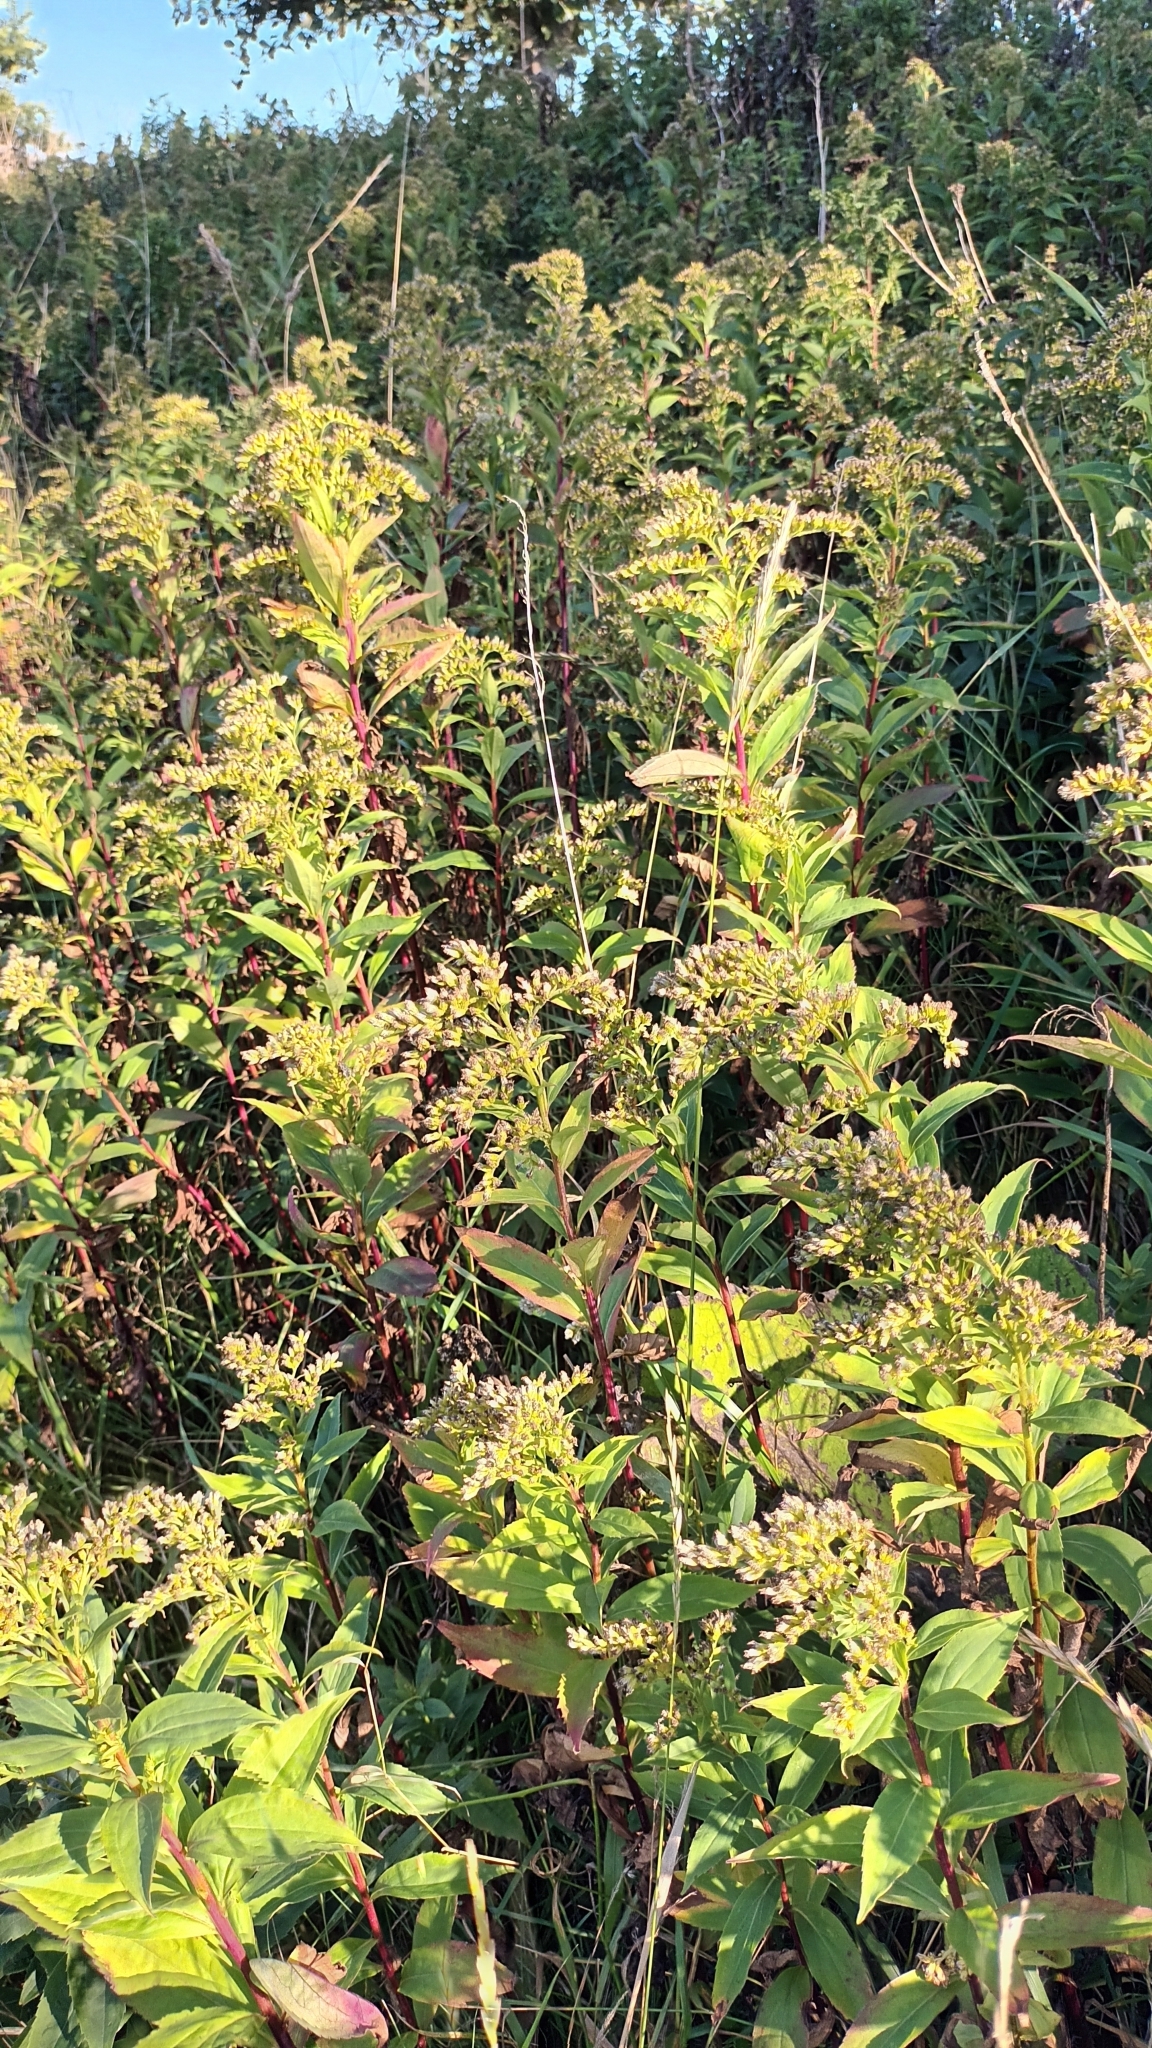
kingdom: Plantae
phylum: Tracheophyta
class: Magnoliopsida
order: Asterales
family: Asteraceae
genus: Solidago
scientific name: Solidago gigantea
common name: Giant goldenrod
